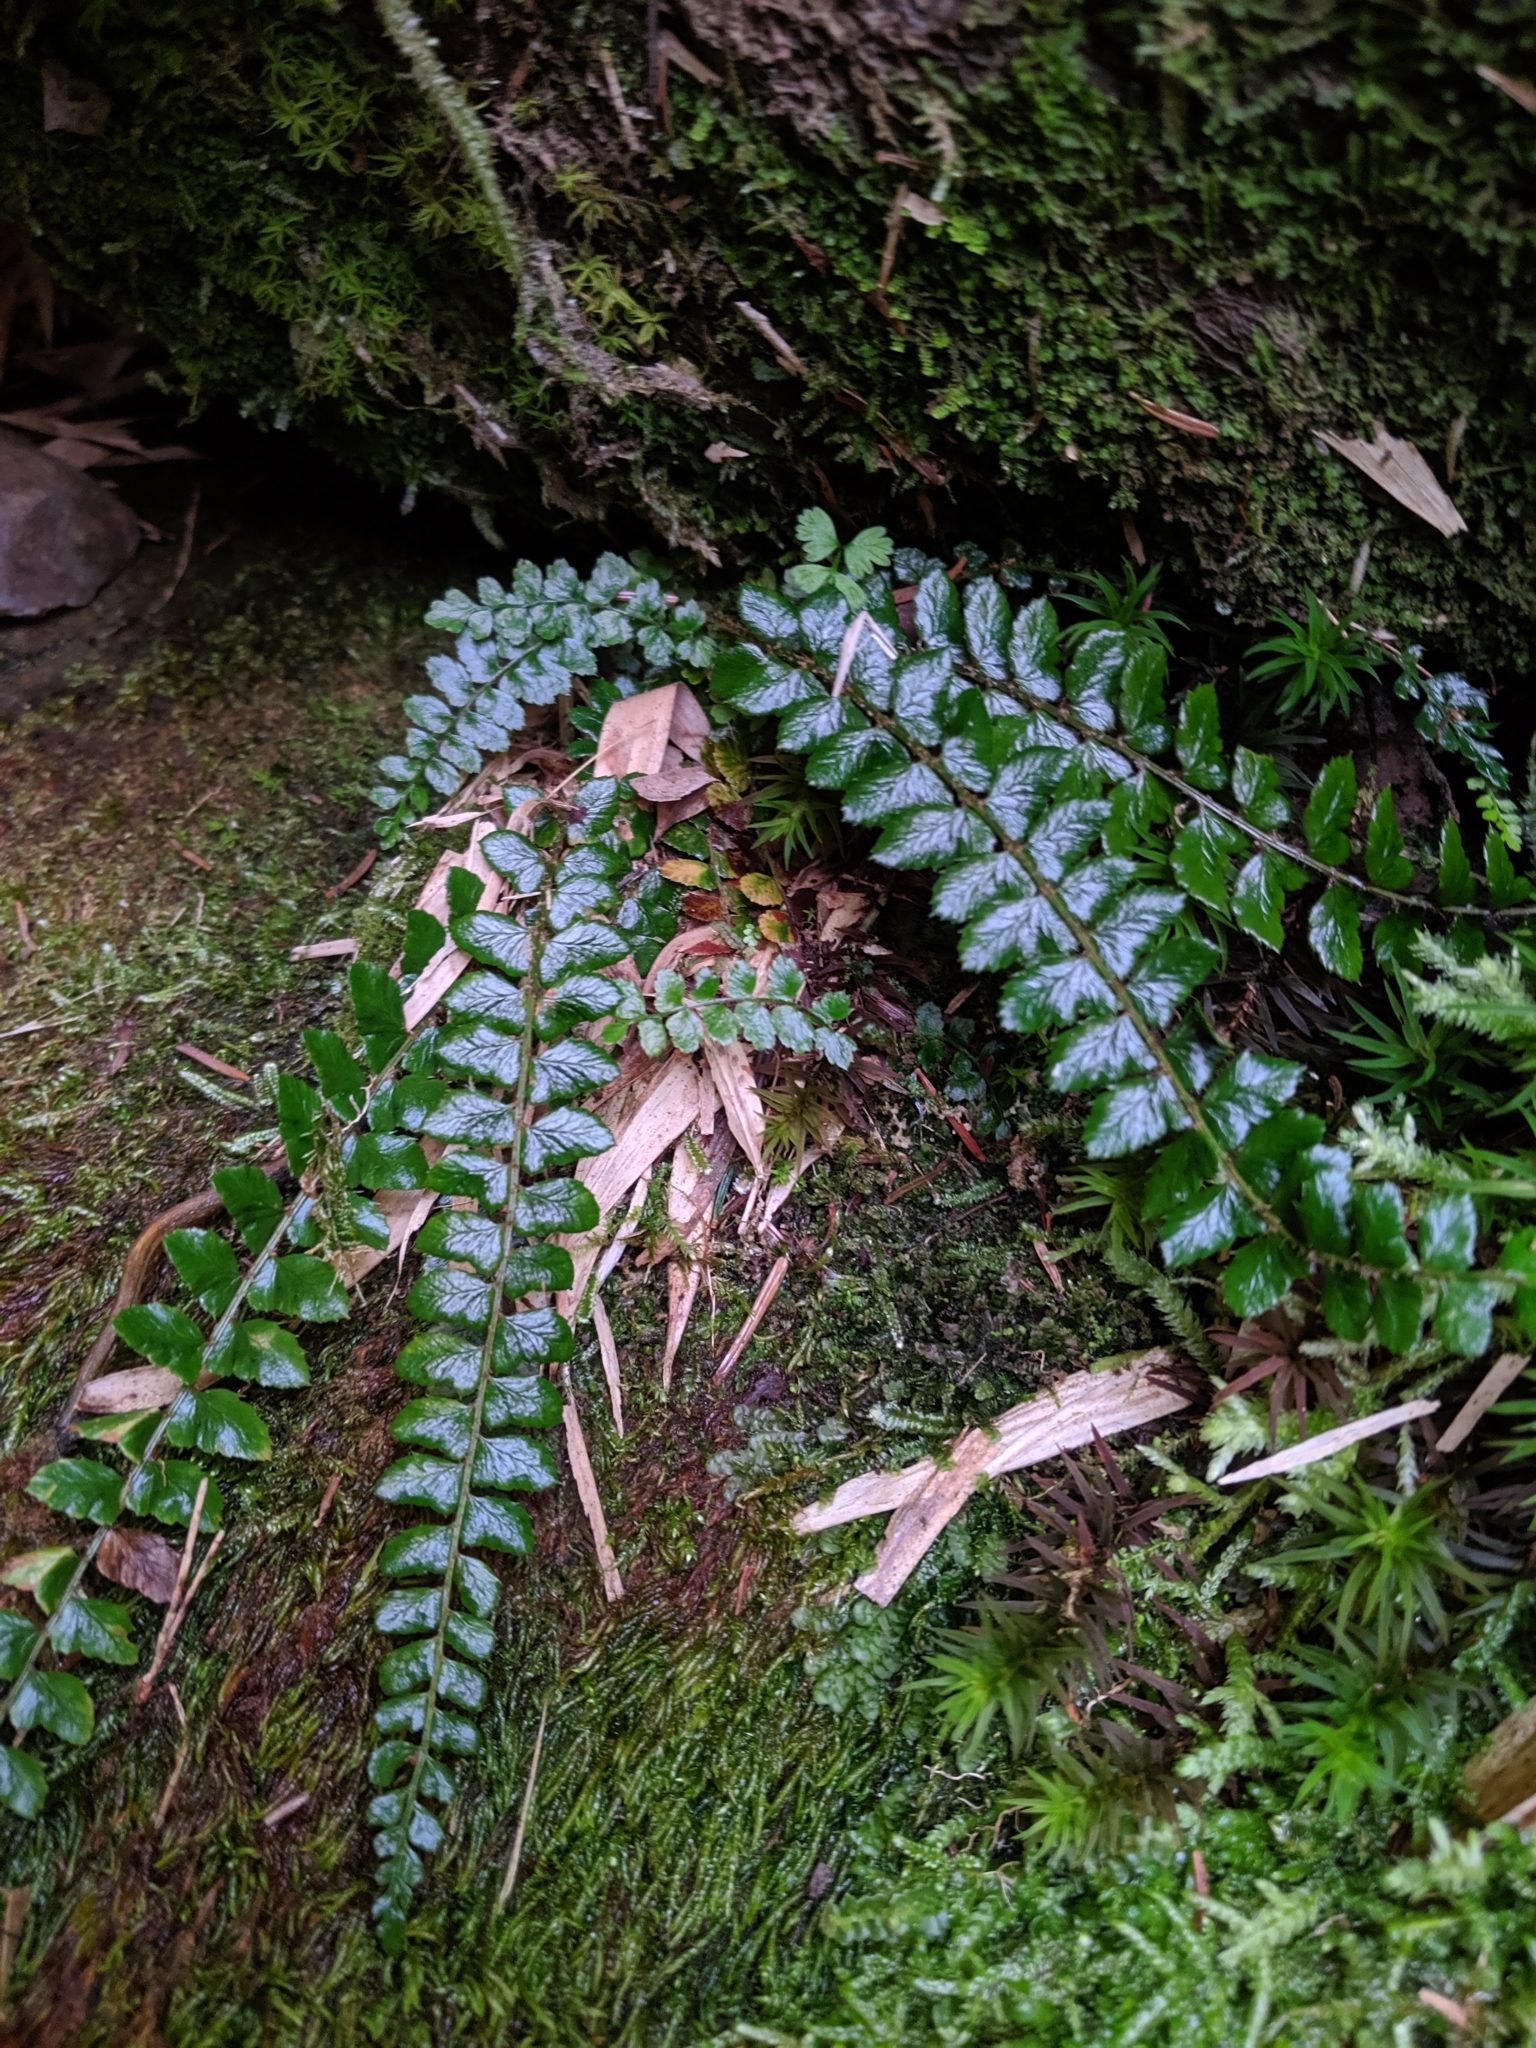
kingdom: Plantae
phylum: Tracheophyta
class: Polypodiopsida
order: Polypodiales
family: Dryopteridaceae
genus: Polystichum
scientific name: Polystichum levingei
